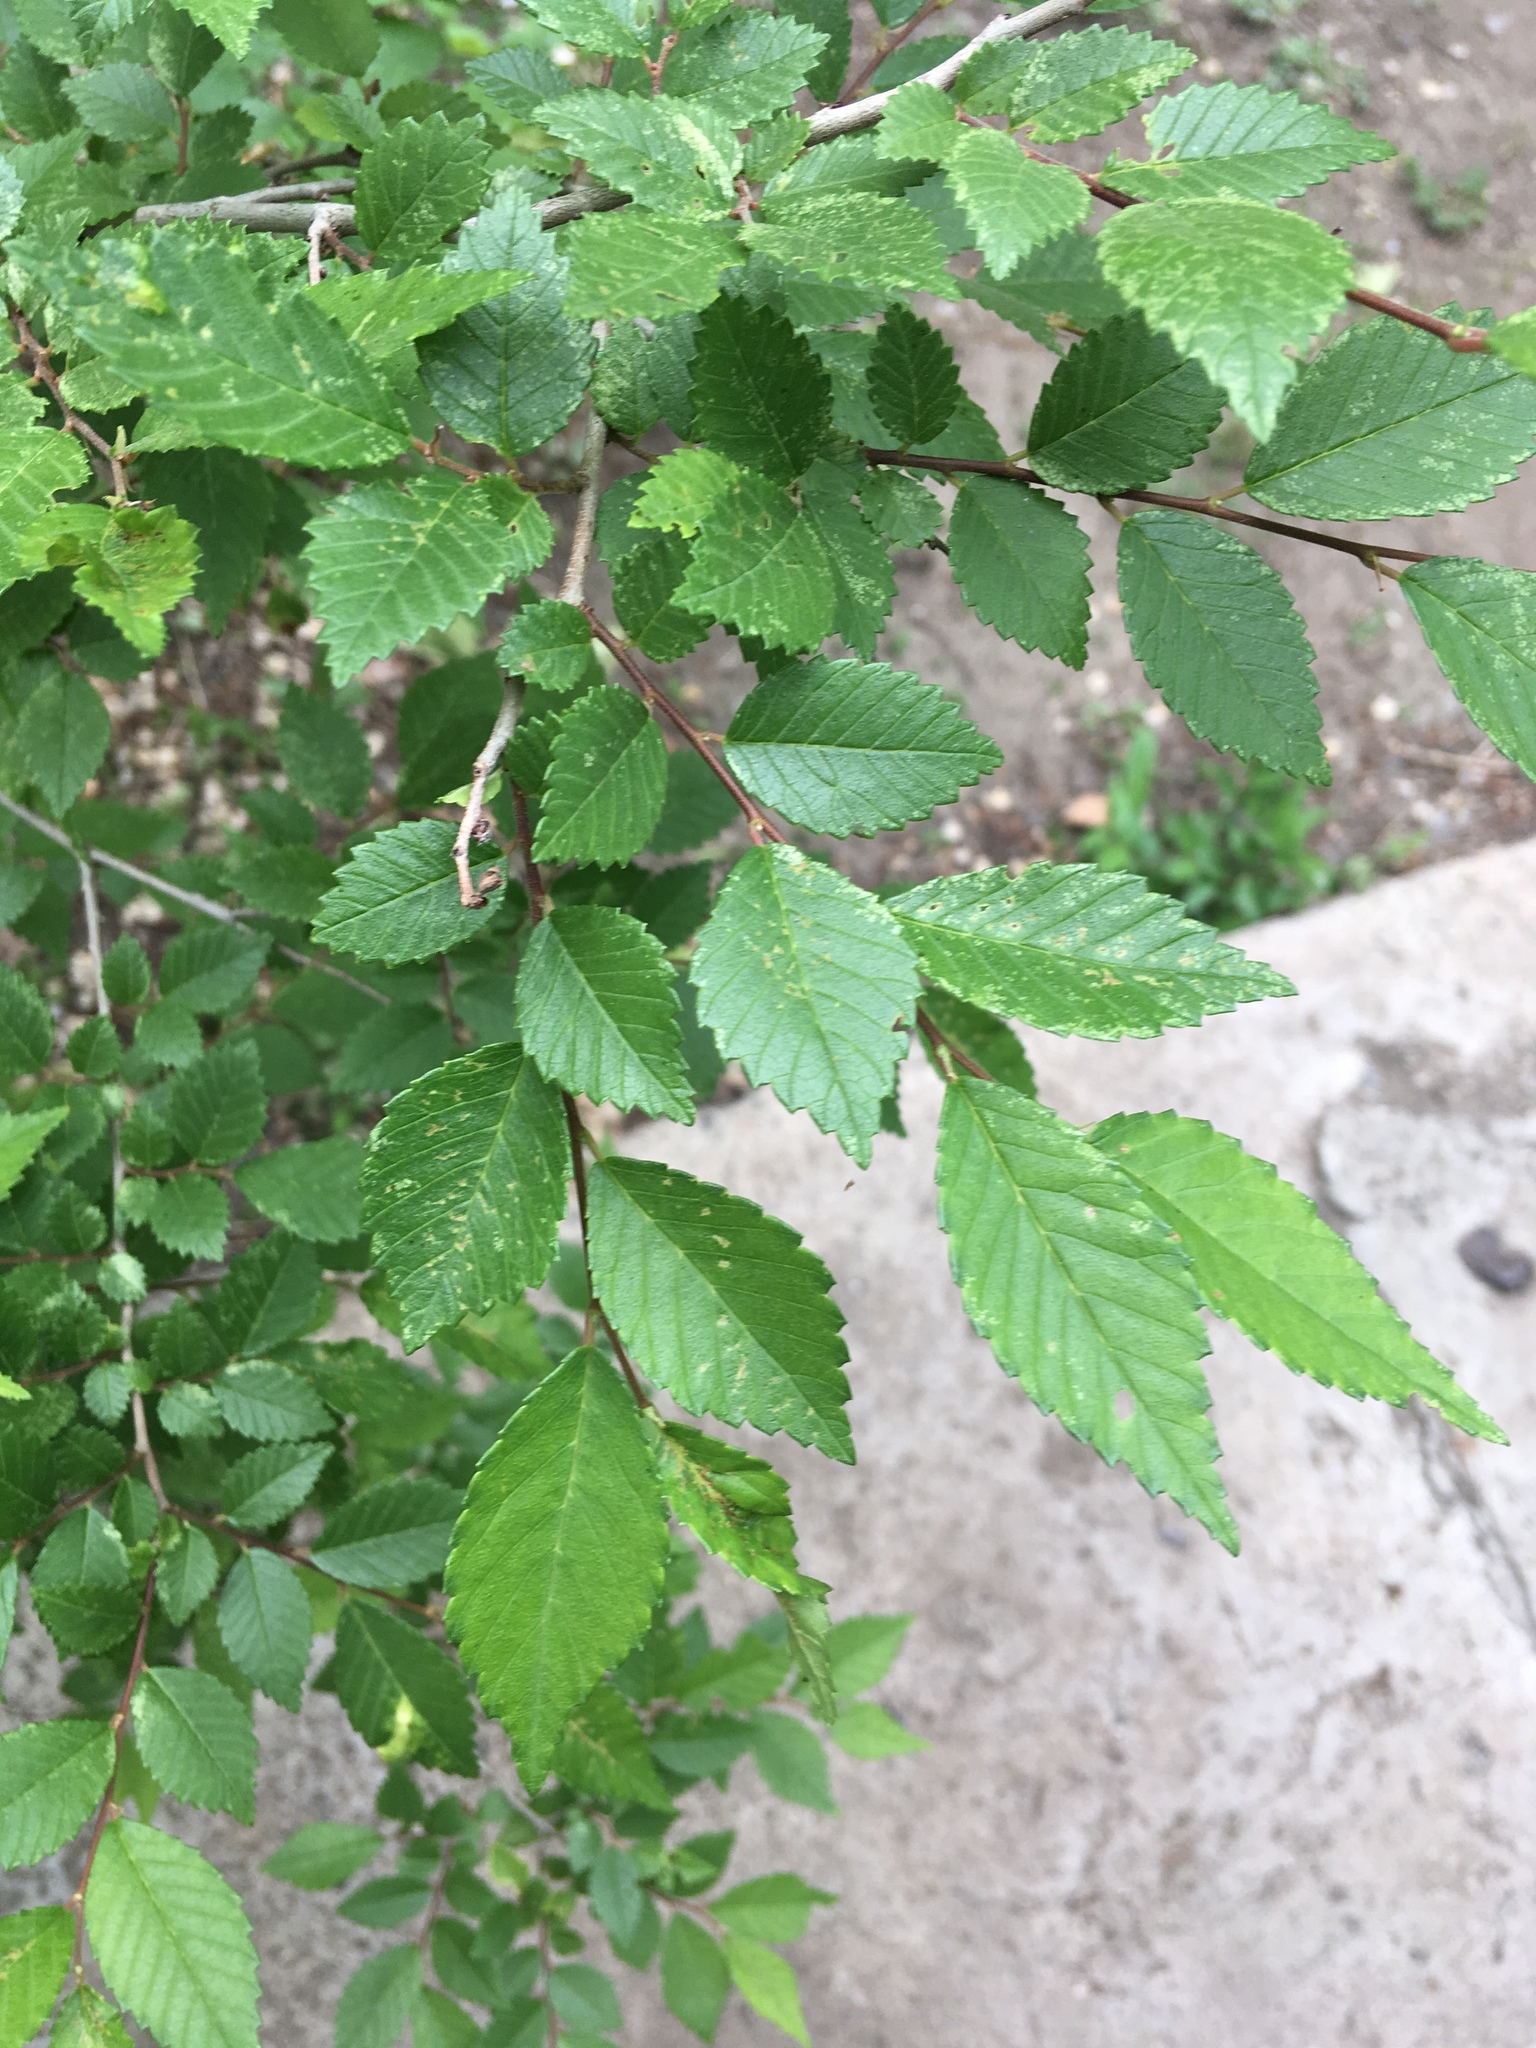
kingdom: Plantae
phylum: Tracheophyta
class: Magnoliopsida
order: Rosales
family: Ulmaceae
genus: Ulmus
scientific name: Ulmus pumila
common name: Siberian elm
